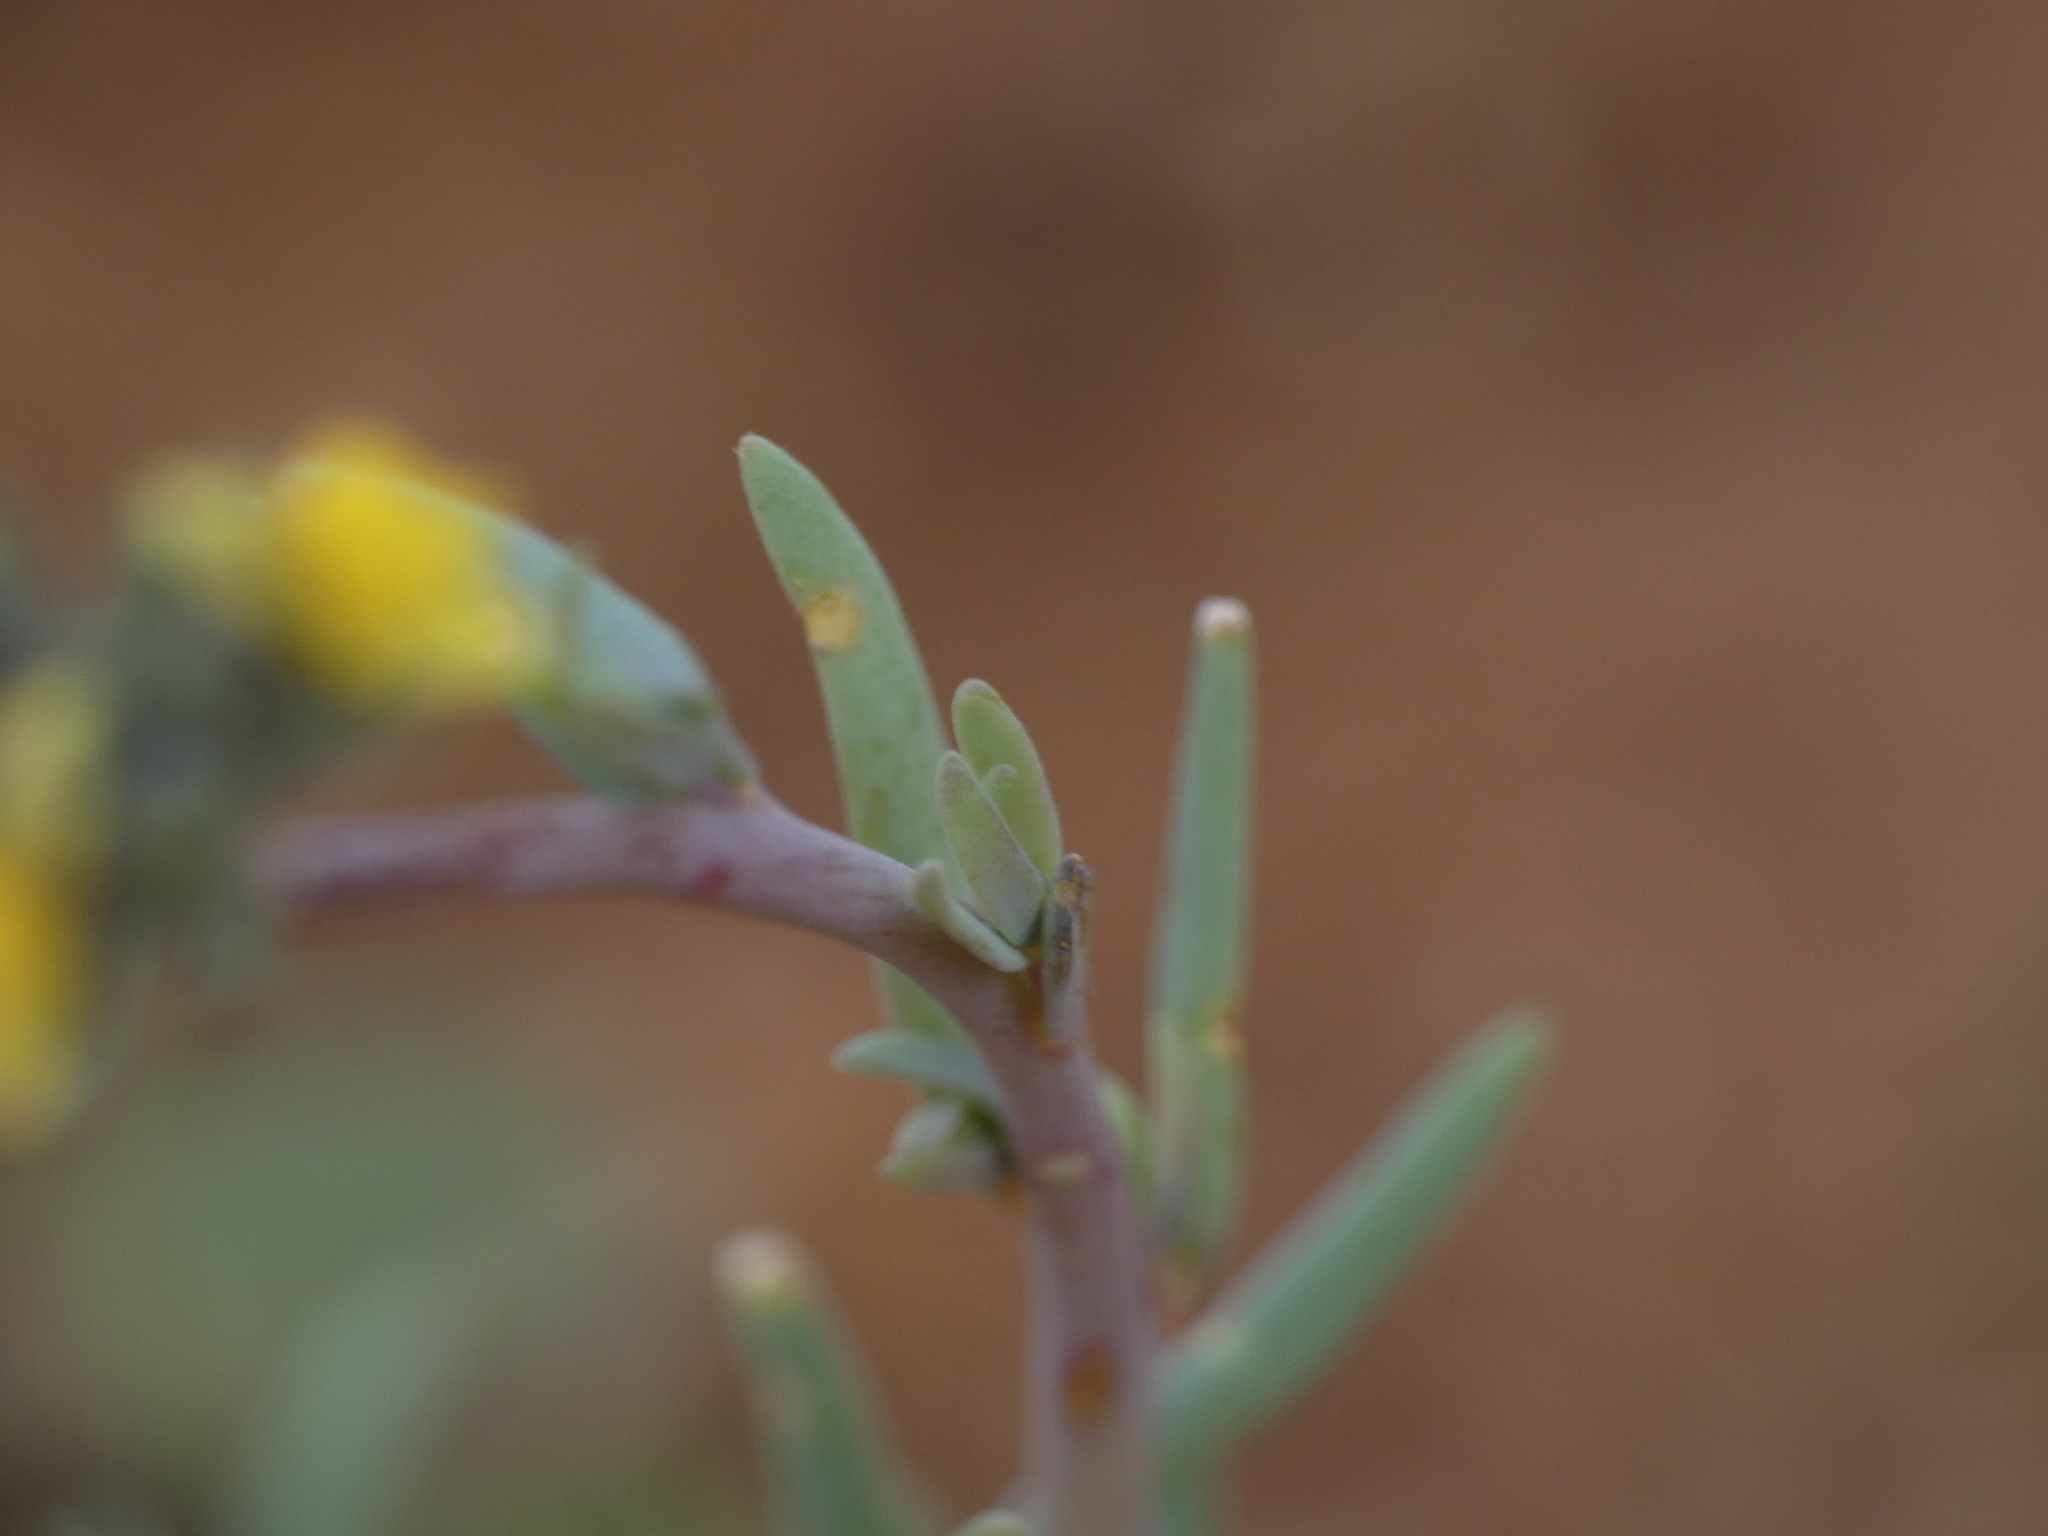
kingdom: Plantae
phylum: Tracheophyta
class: Magnoliopsida
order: Lamiales
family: Plantaginaceae
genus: Linaria
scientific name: Linaria simplex
